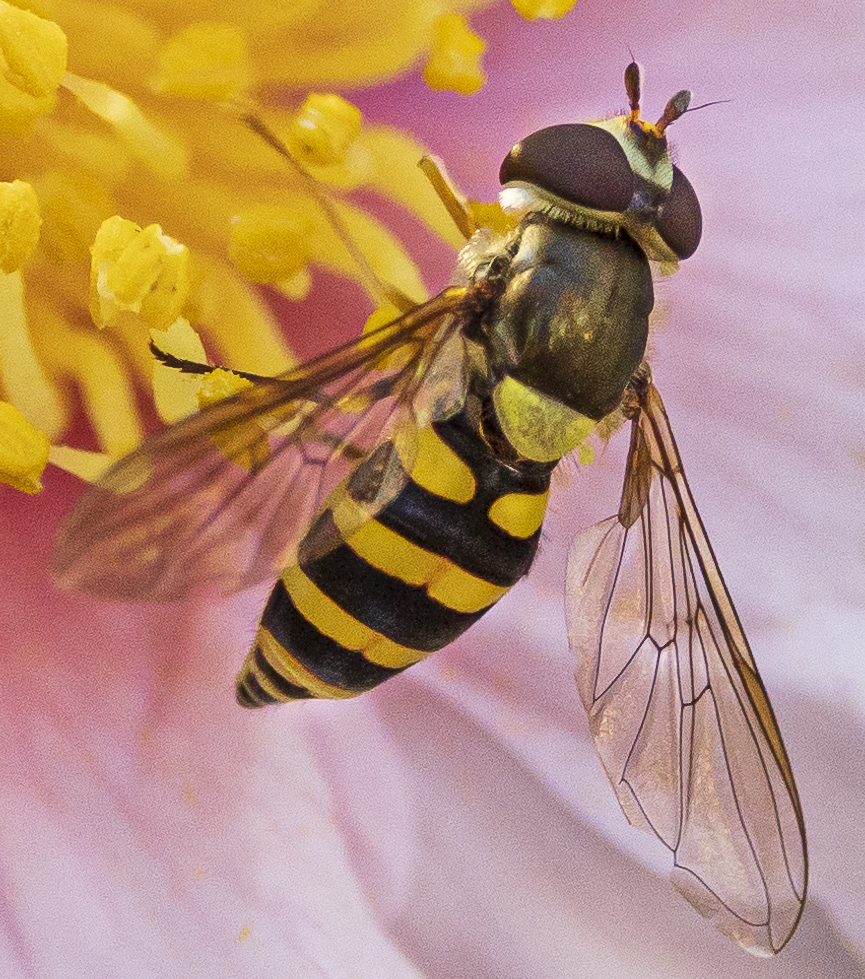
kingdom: Animalia
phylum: Arthropoda
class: Insecta
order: Diptera
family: Syrphidae
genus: Syrphus
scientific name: Syrphus rectus
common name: Yellow-legged flower fly
